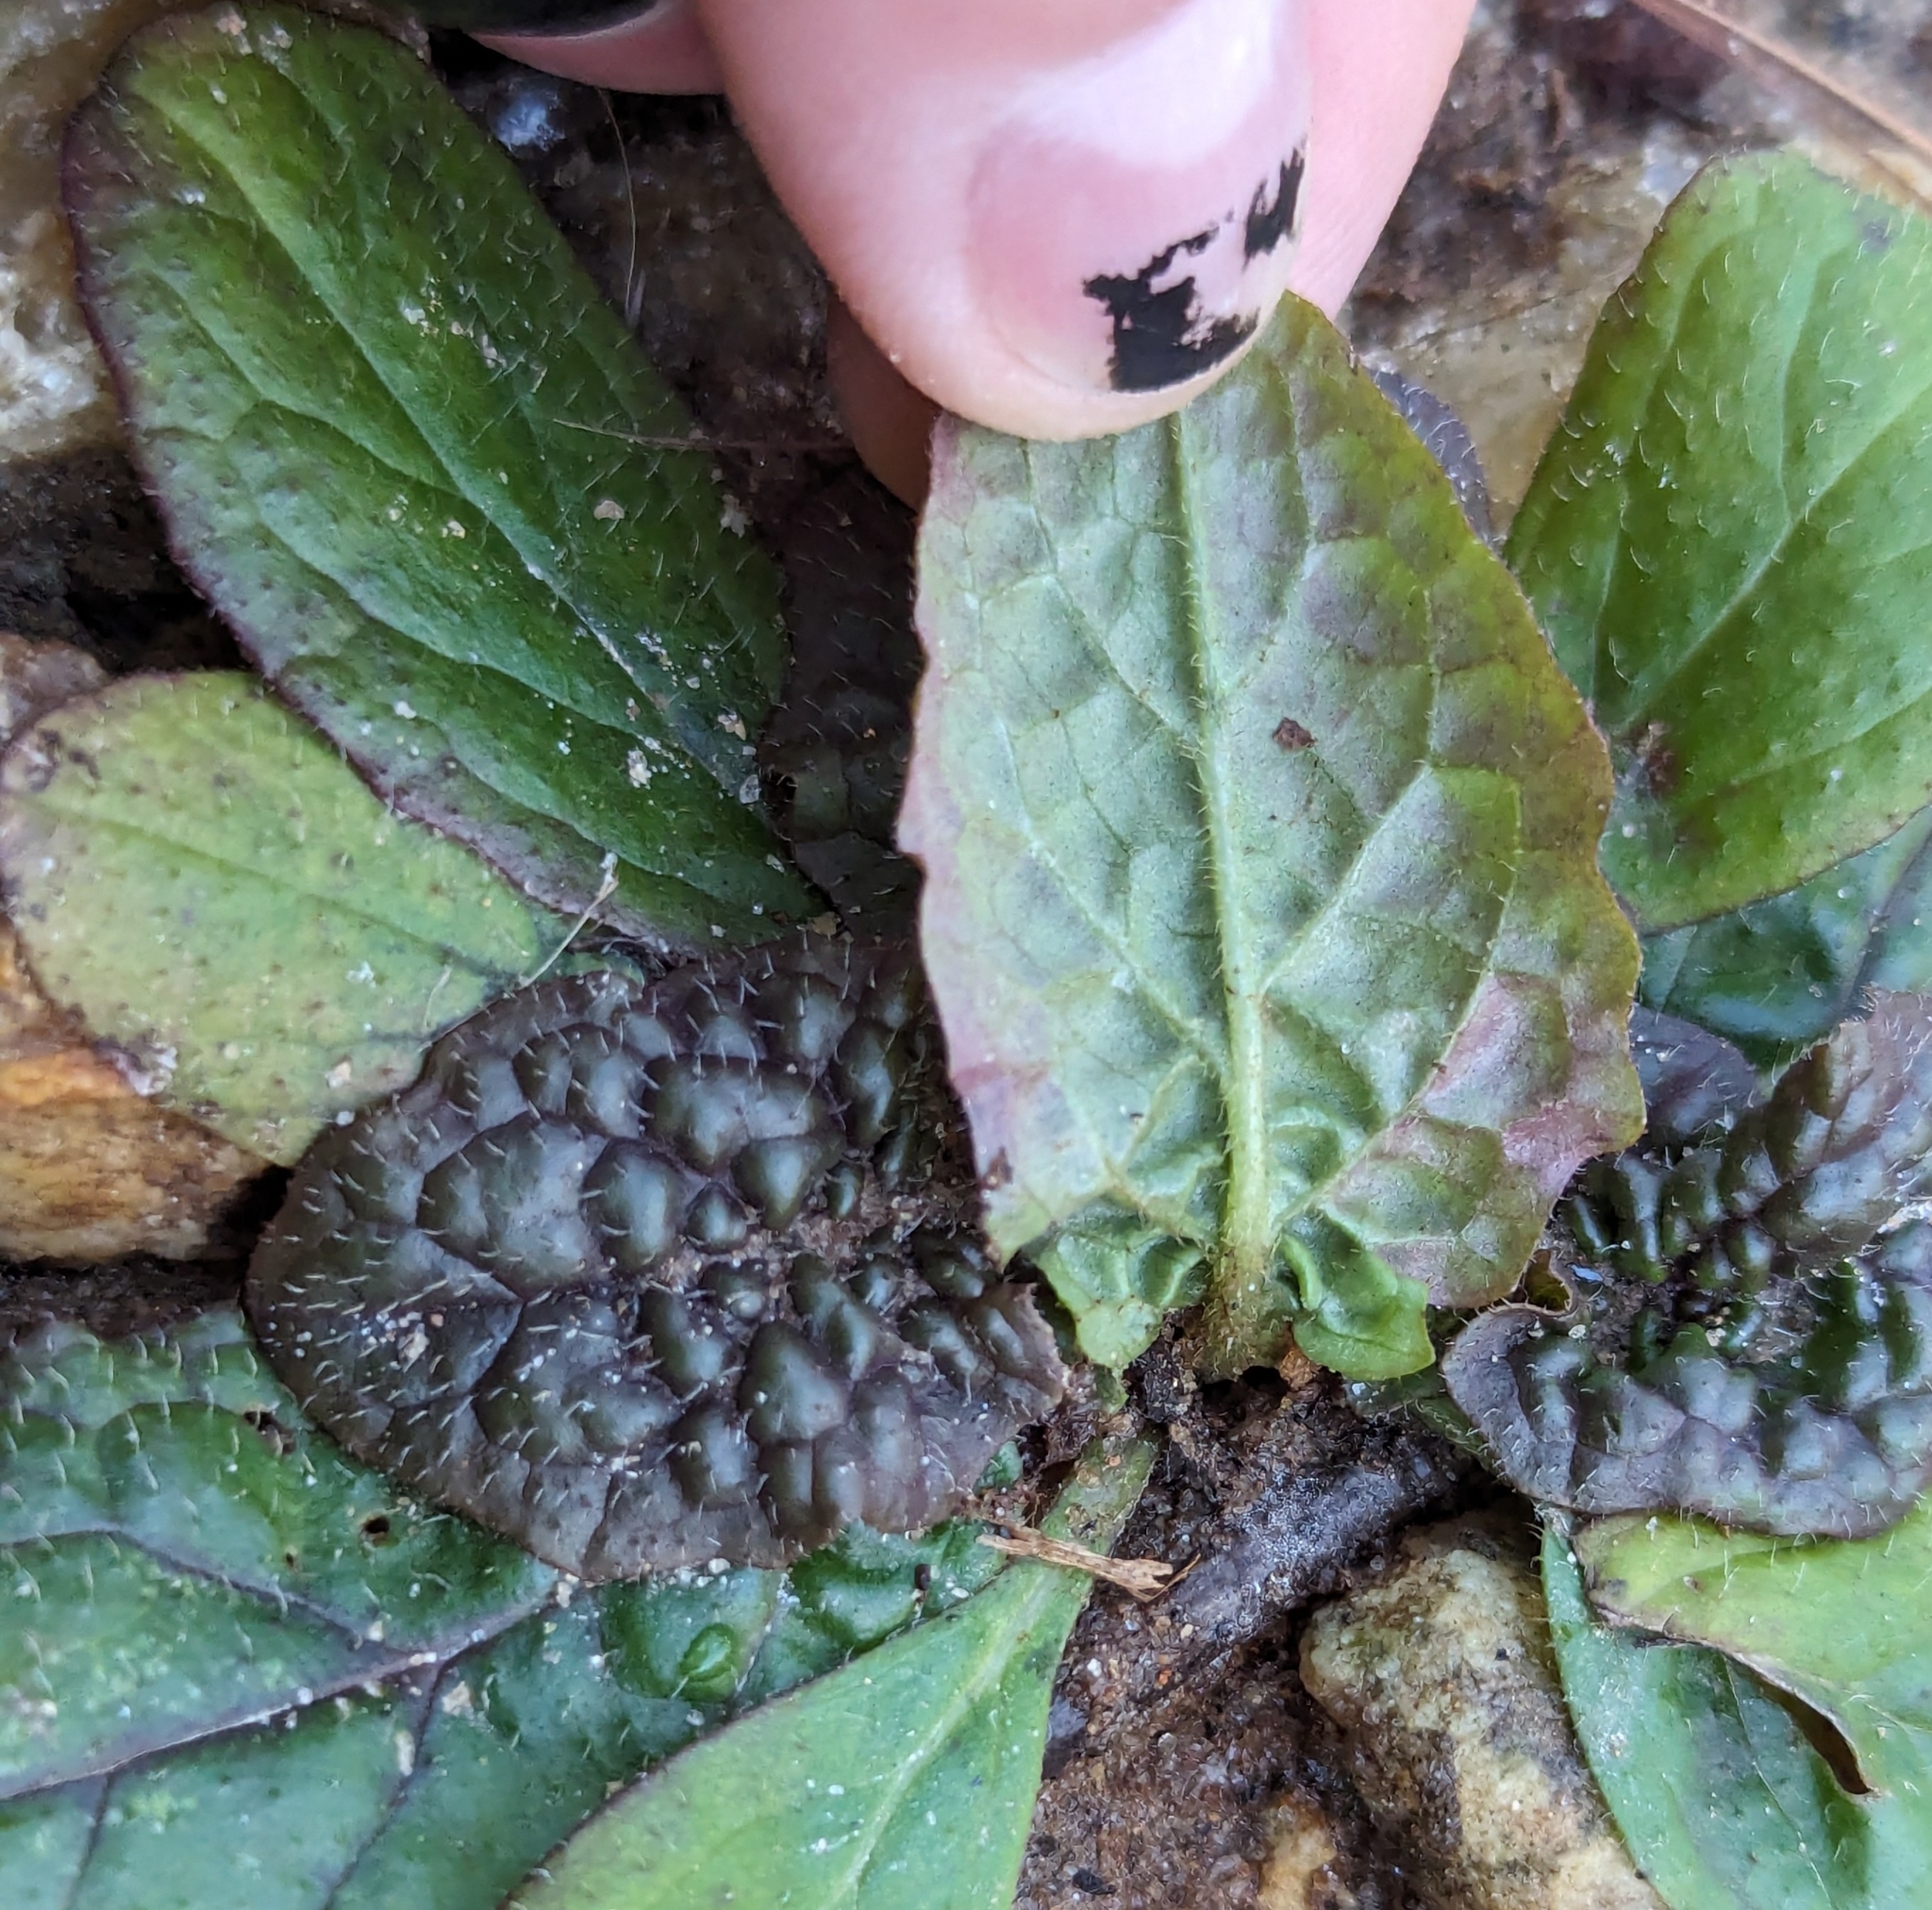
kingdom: Plantae
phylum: Tracheophyta
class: Magnoliopsida
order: Lamiales
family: Lamiaceae
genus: Salvia
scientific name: Salvia lyrata
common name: Cancerweed
